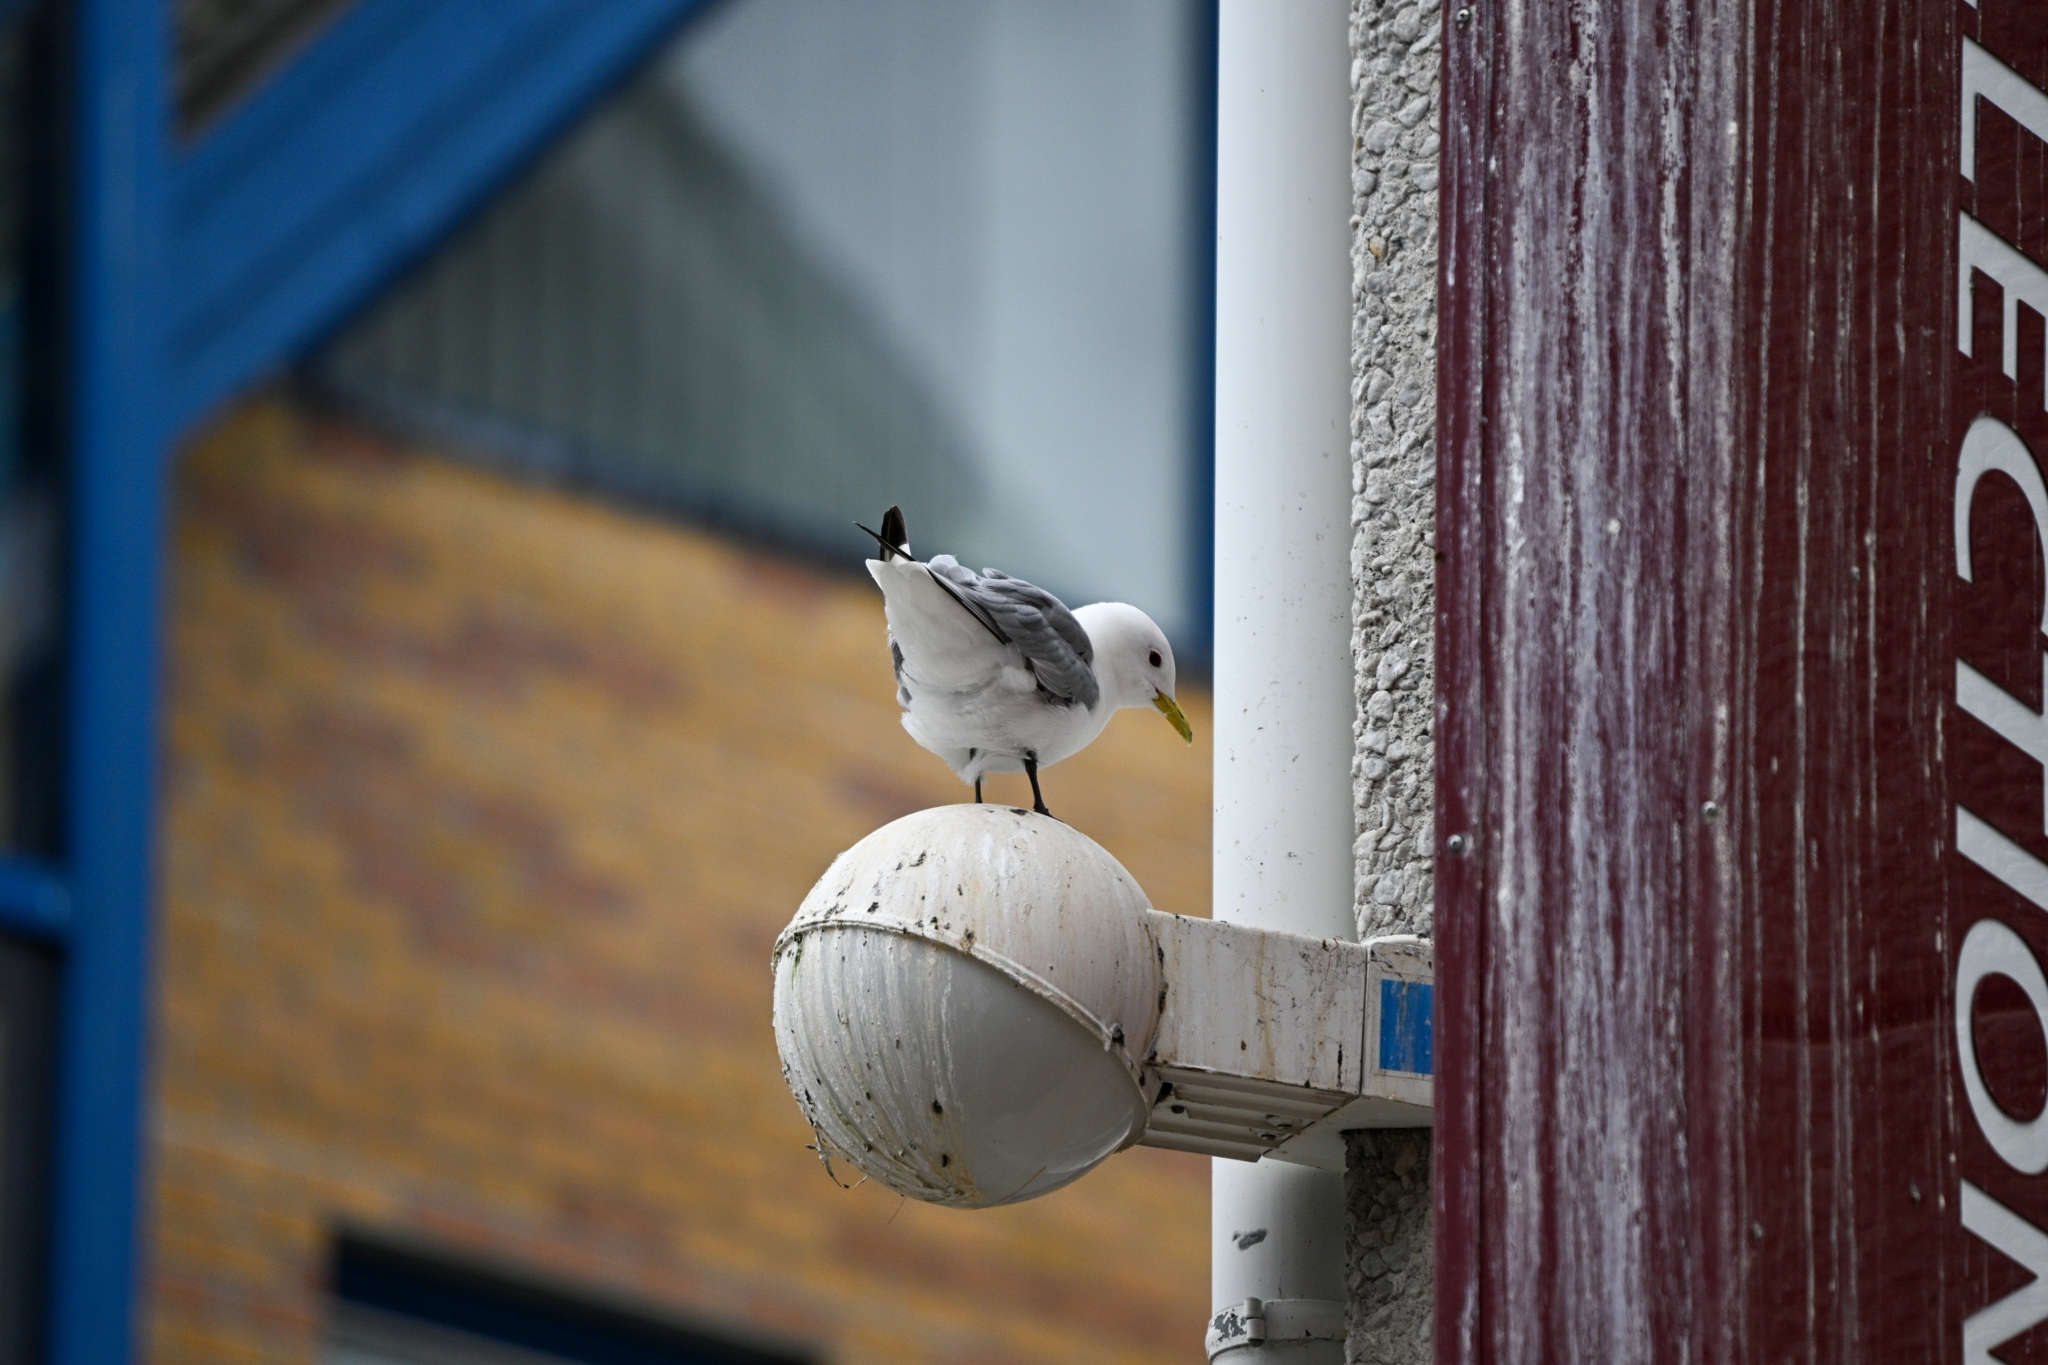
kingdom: Animalia
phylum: Chordata
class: Aves
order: Charadriiformes
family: Laridae
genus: Rissa
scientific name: Rissa tridactyla
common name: Black-legged kittiwake
